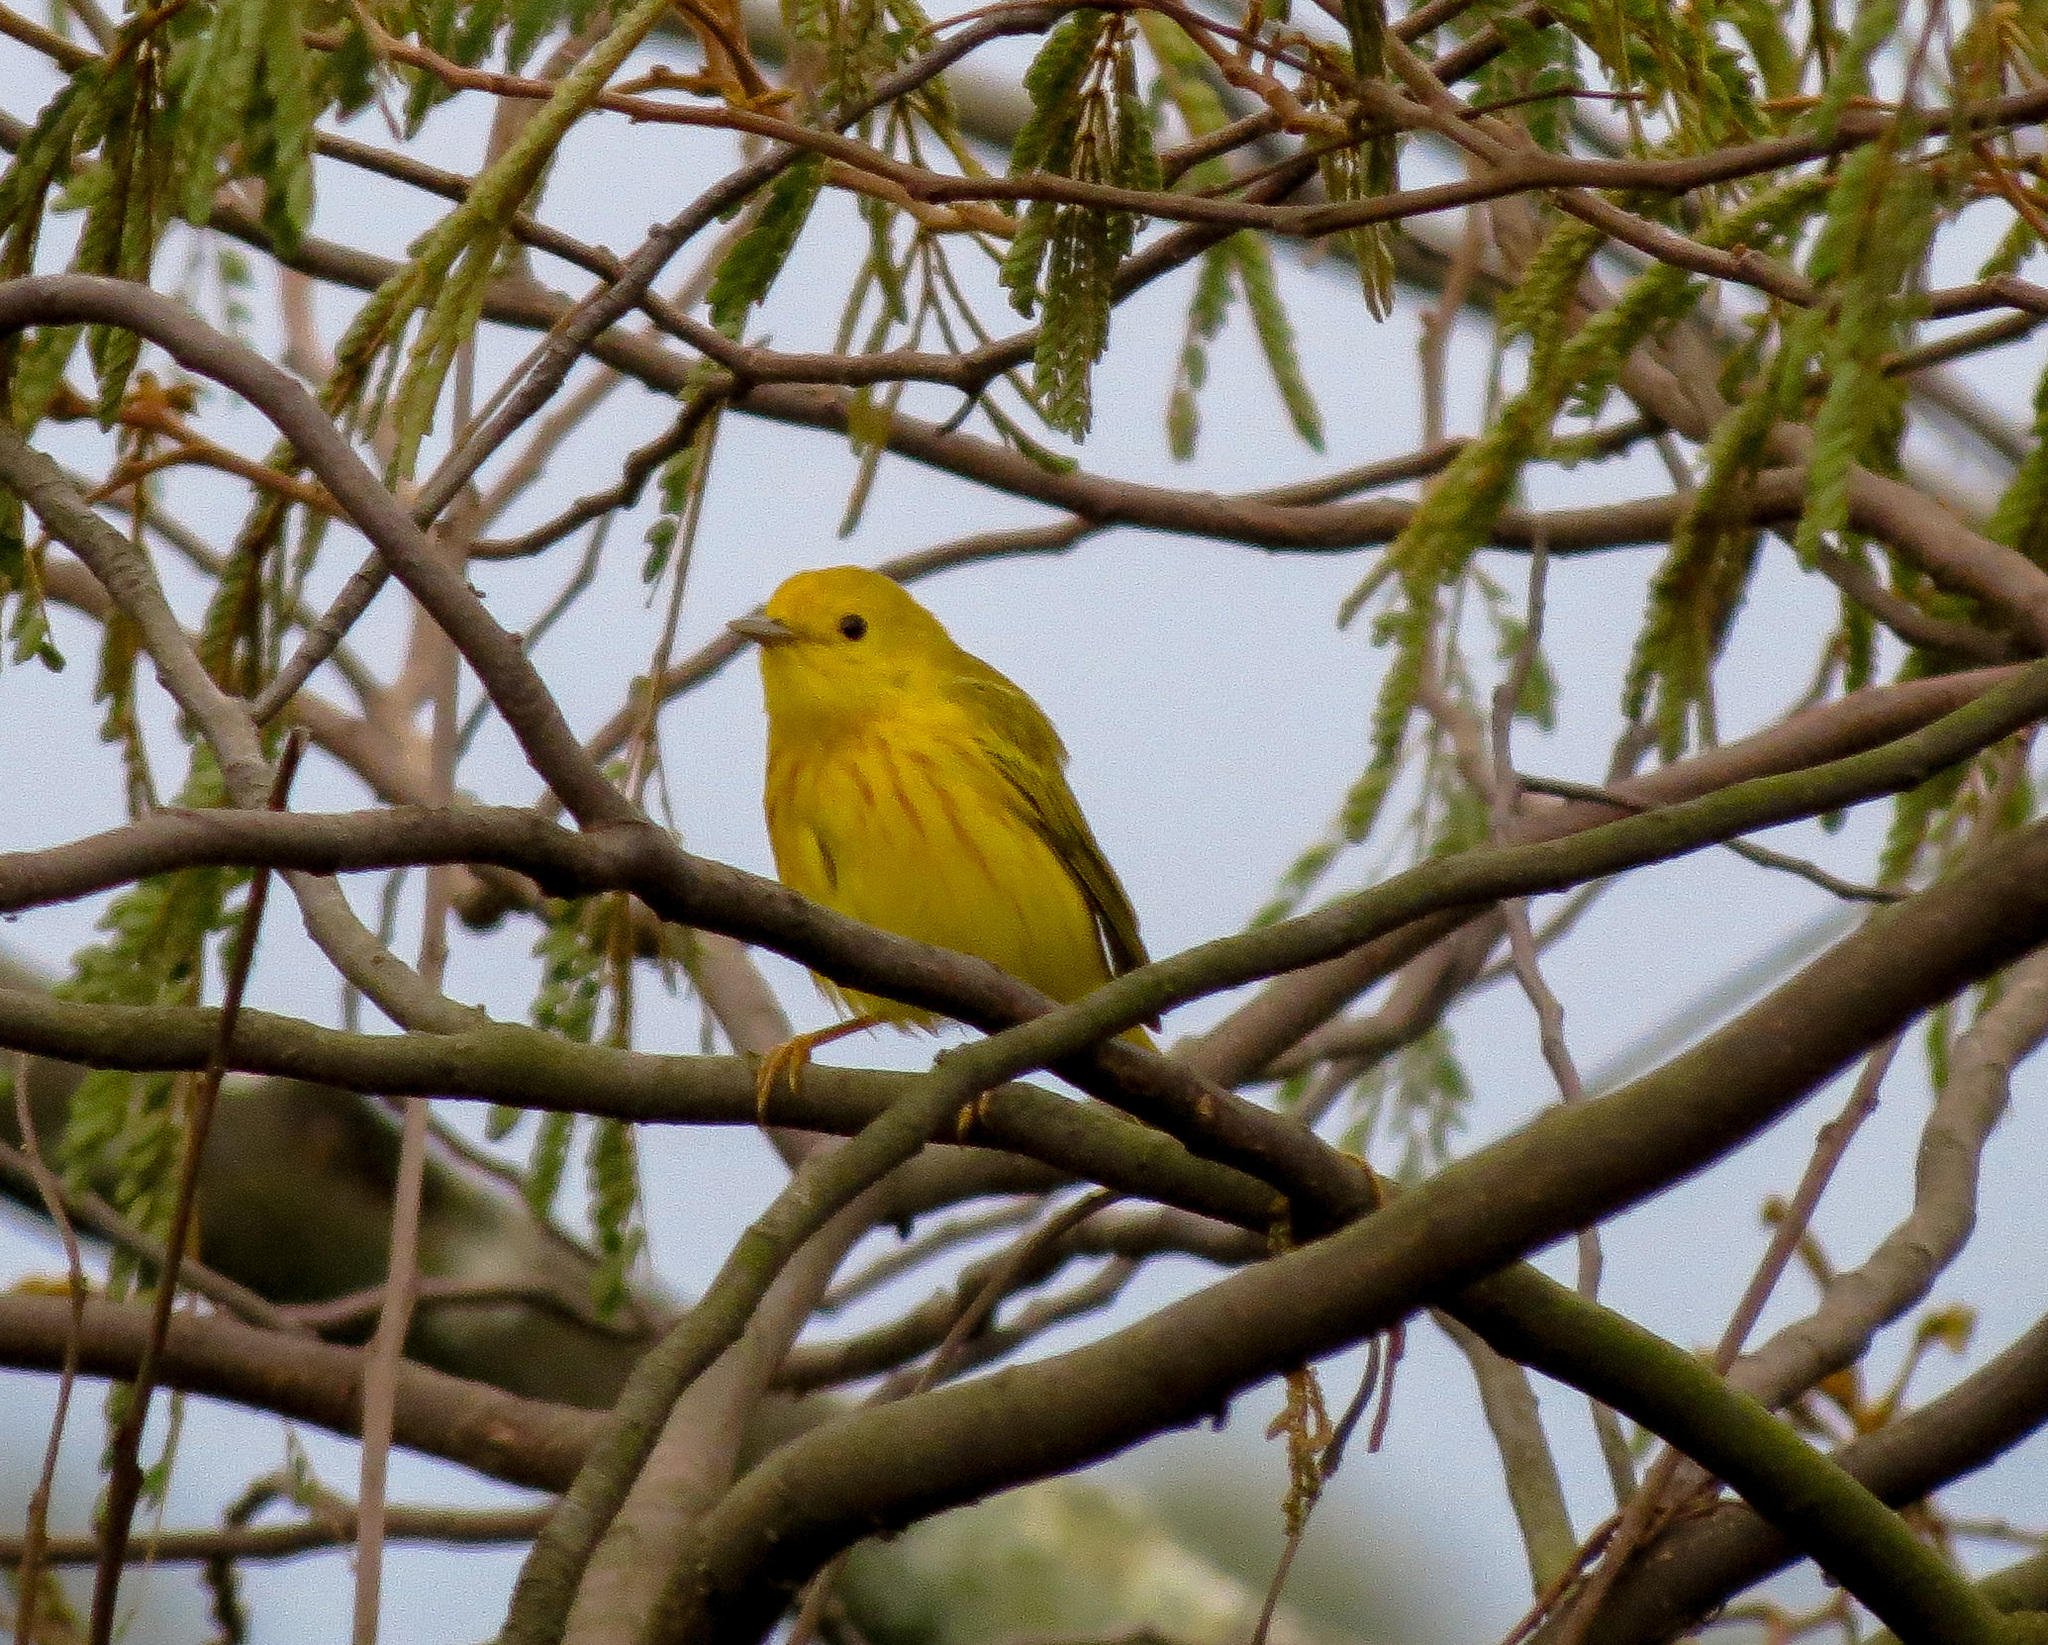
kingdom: Animalia
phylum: Chordata
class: Aves
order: Passeriformes
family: Parulidae
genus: Setophaga
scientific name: Setophaga petechia
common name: Yellow warbler
